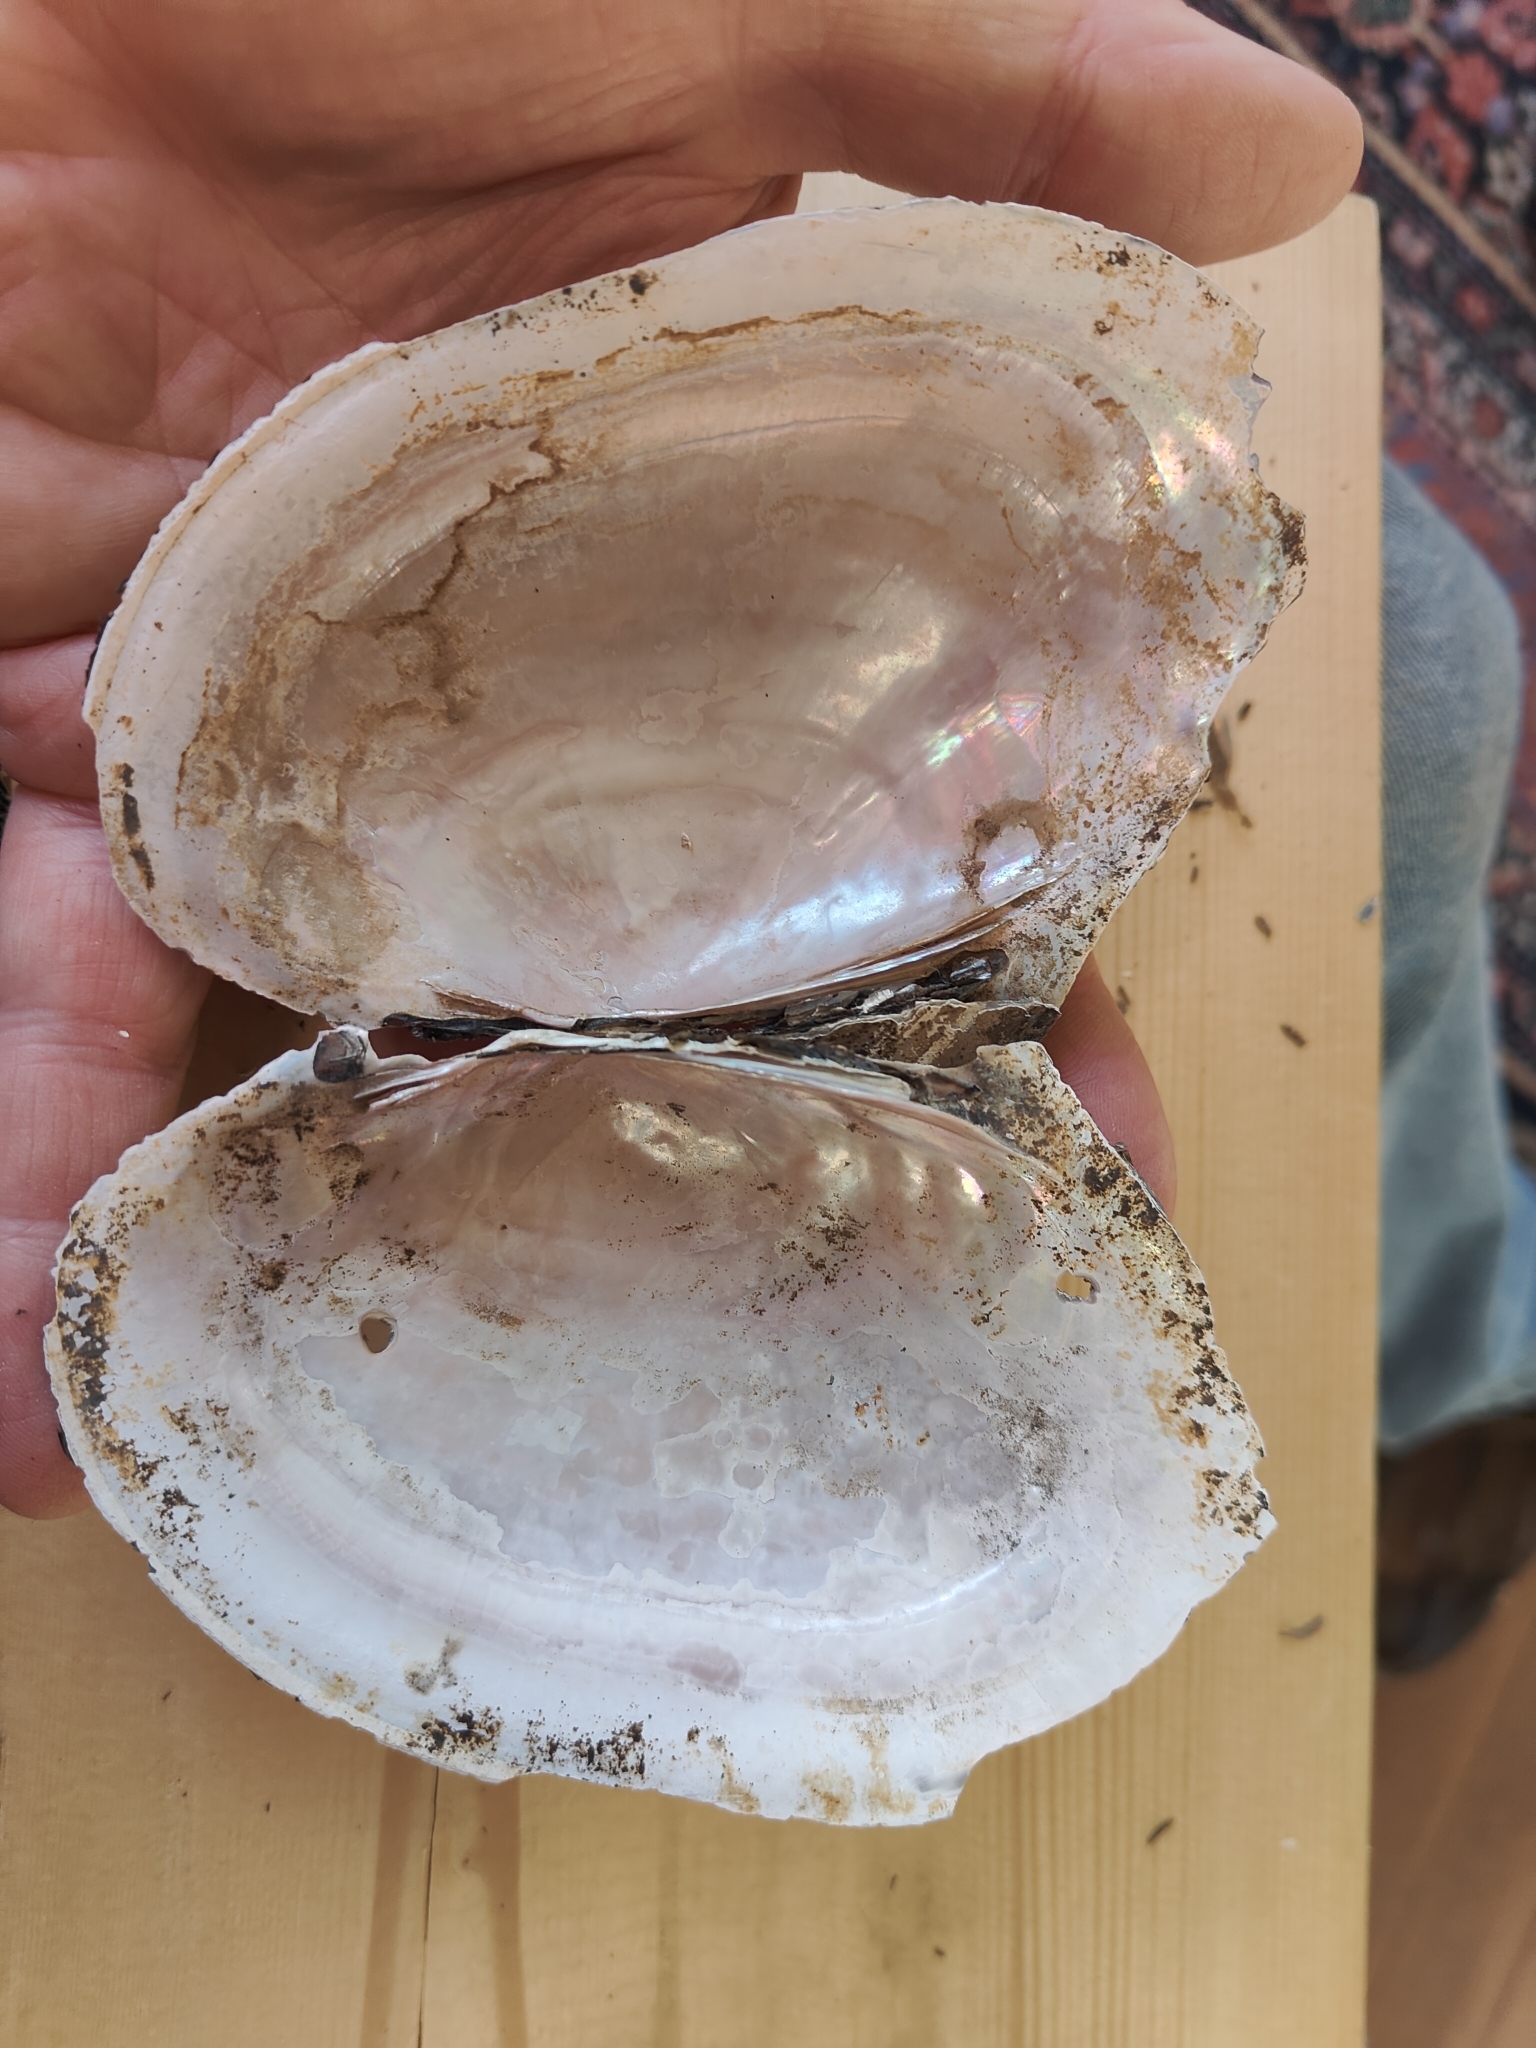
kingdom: Animalia
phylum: Mollusca
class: Bivalvia
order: Unionida
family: Unionidae
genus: Potamilus
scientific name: Potamilus ohiensis
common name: Pink papershell
